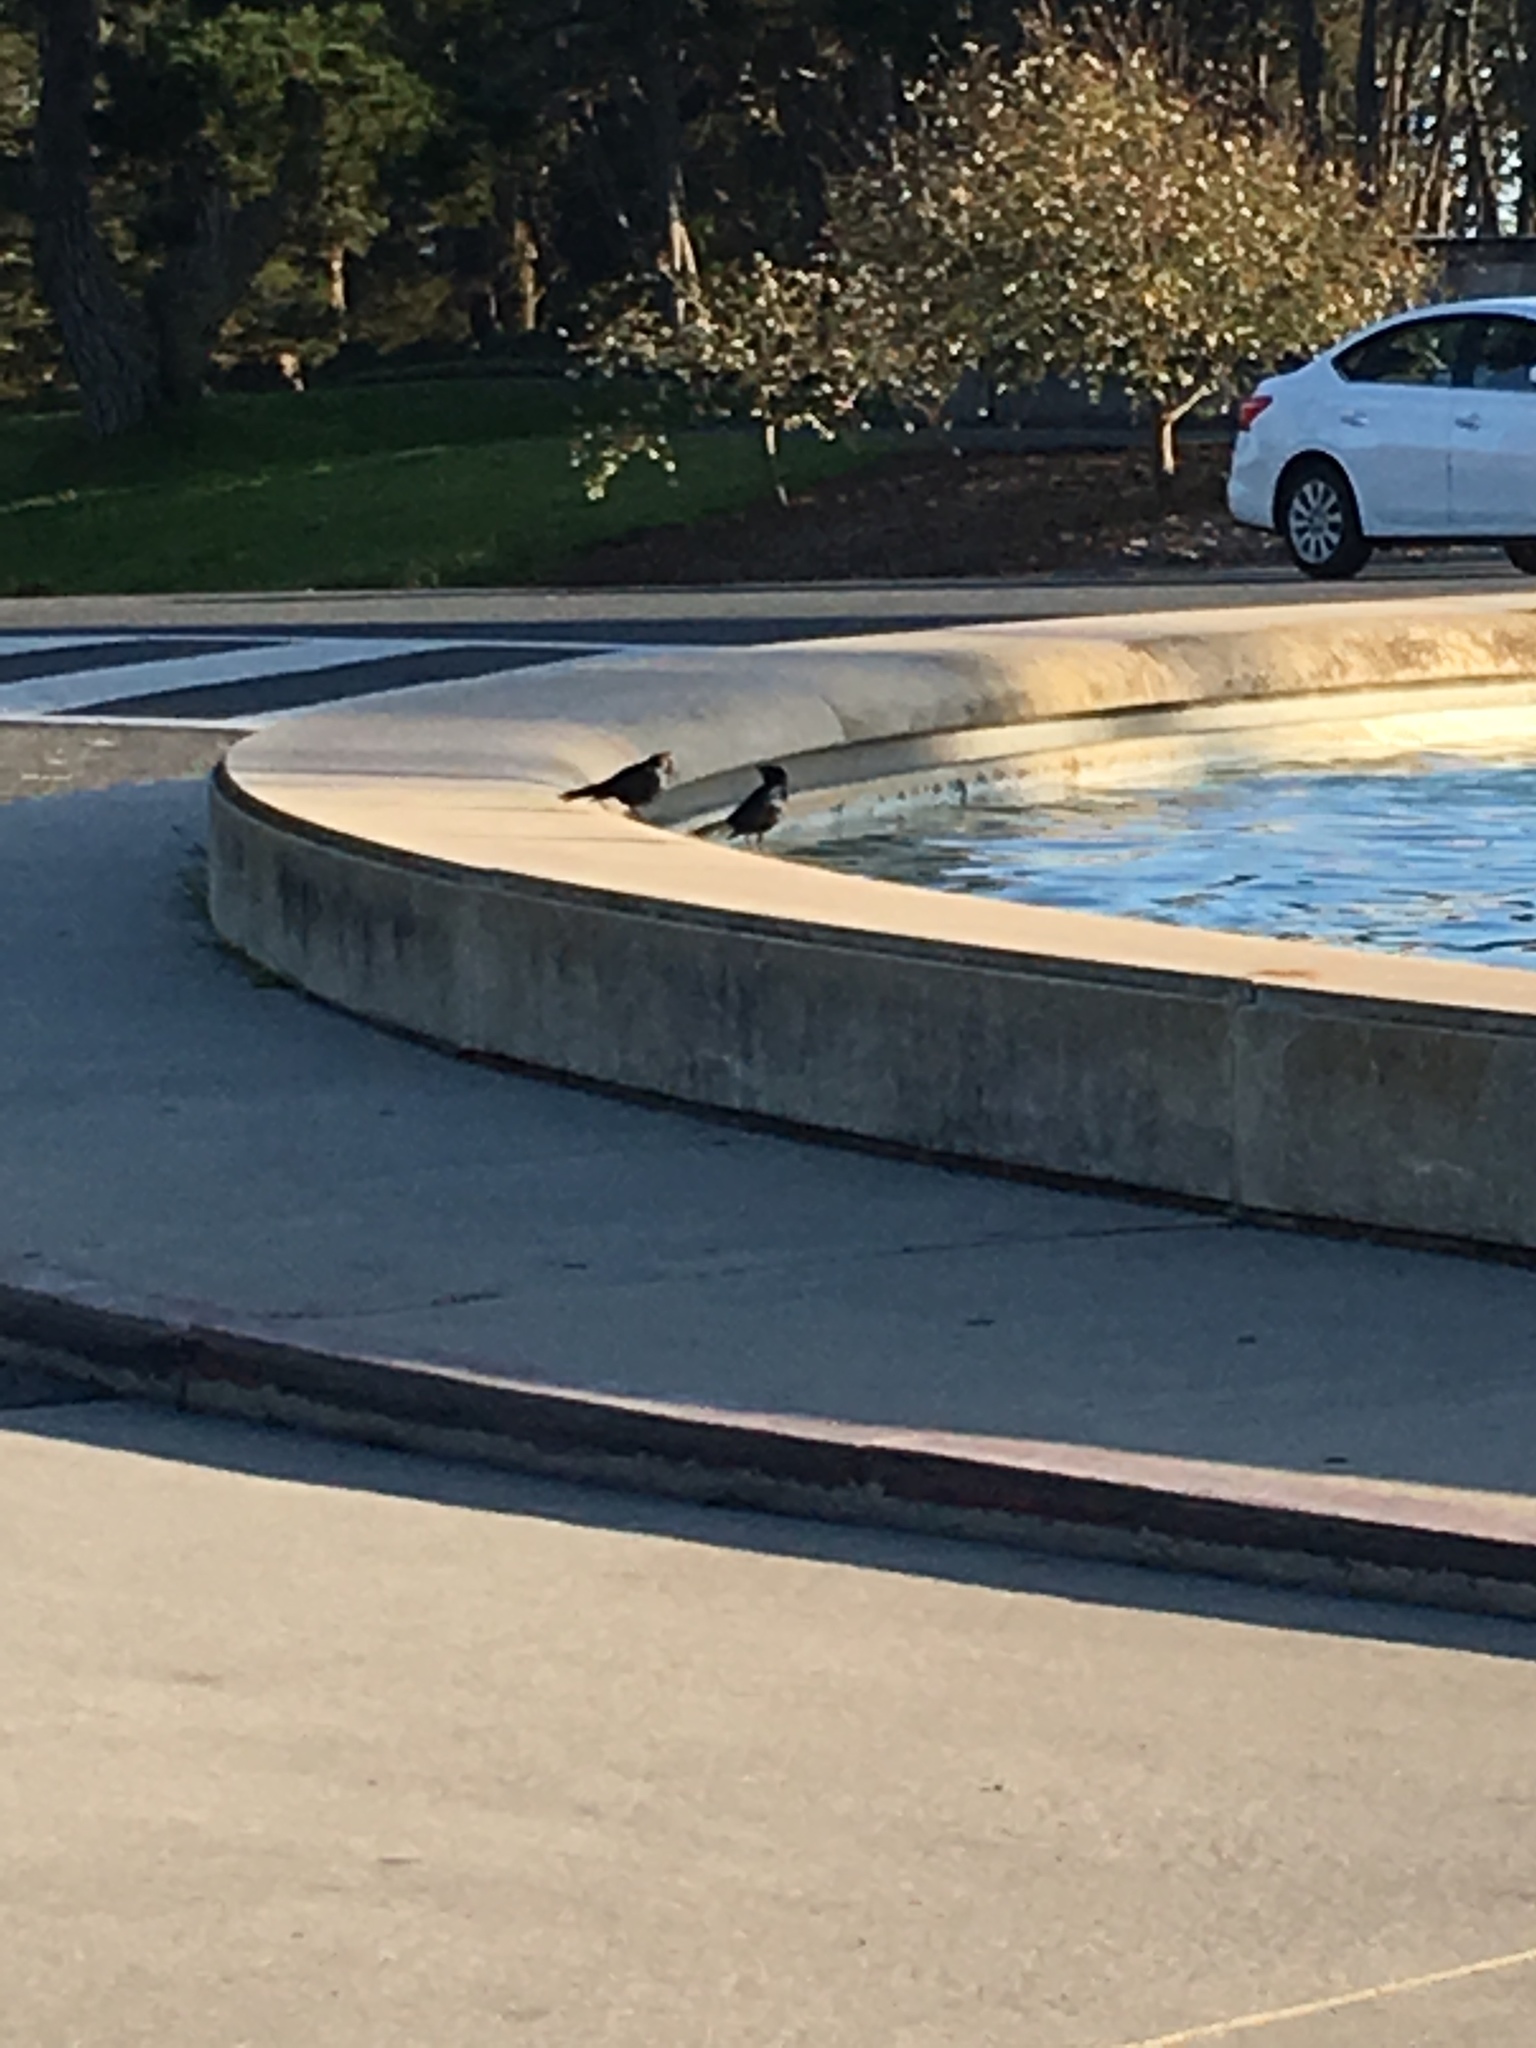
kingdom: Animalia
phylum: Chordata
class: Aves
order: Passeriformes
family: Icteridae
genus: Euphagus
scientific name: Euphagus cyanocephalus
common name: Brewer's blackbird
